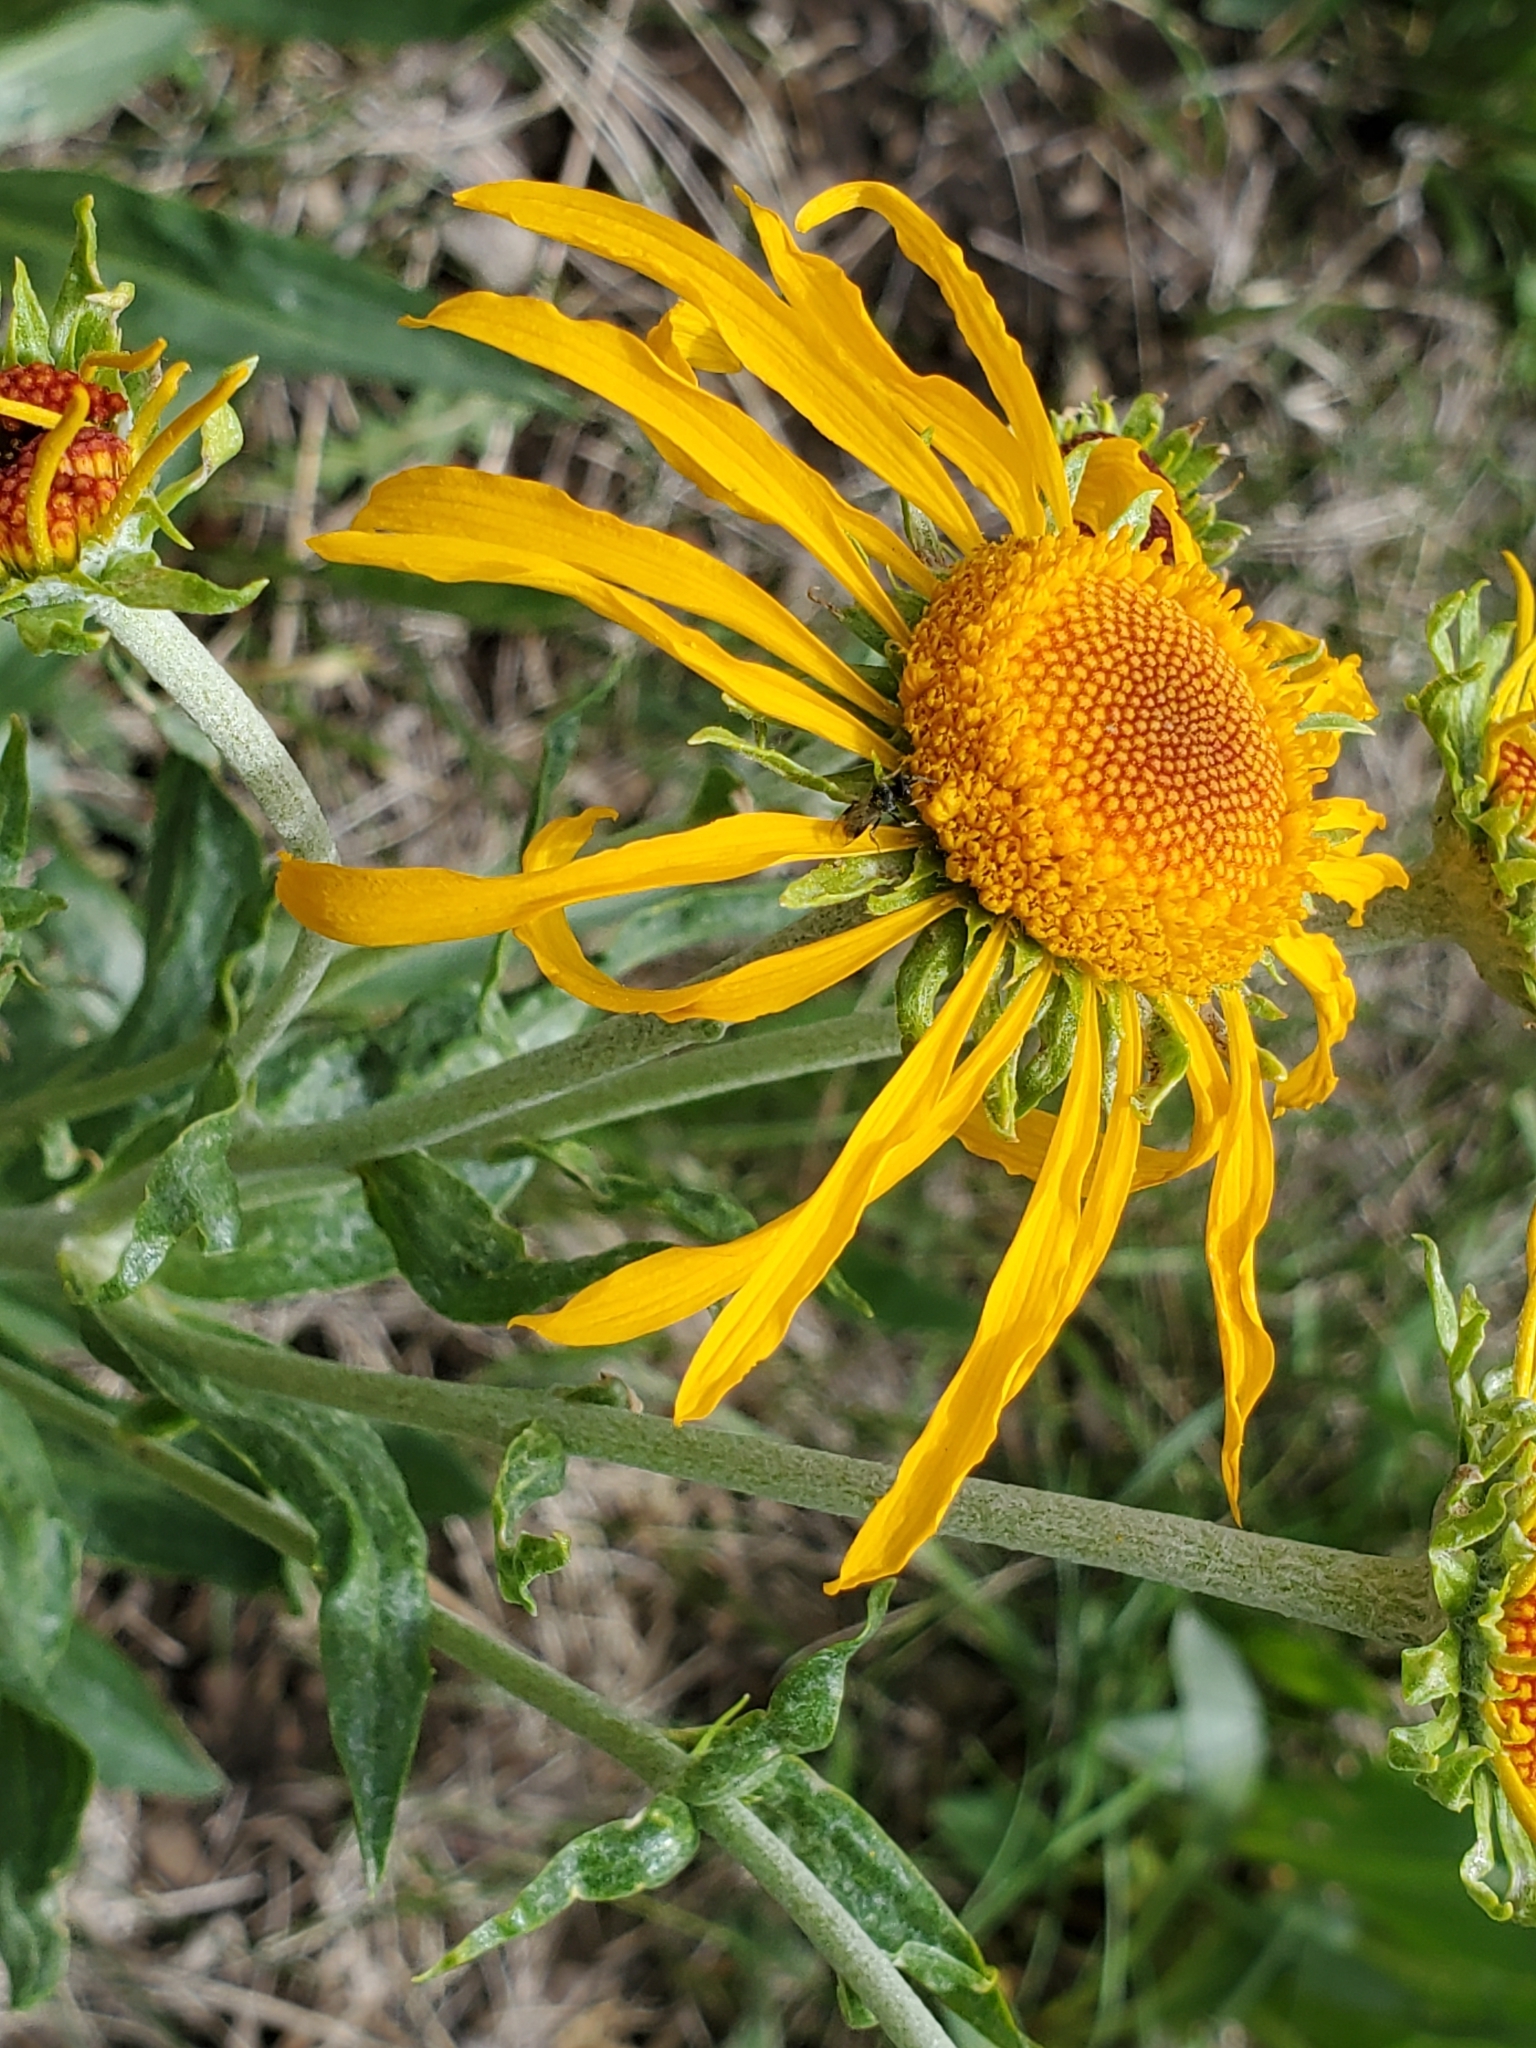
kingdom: Plantae
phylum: Tracheophyta
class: Magnoliopsida
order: Asterales
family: Asteraceae
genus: Hymenoxys
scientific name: Hymenoxys hoopesii
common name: Orange-sneezeweed
